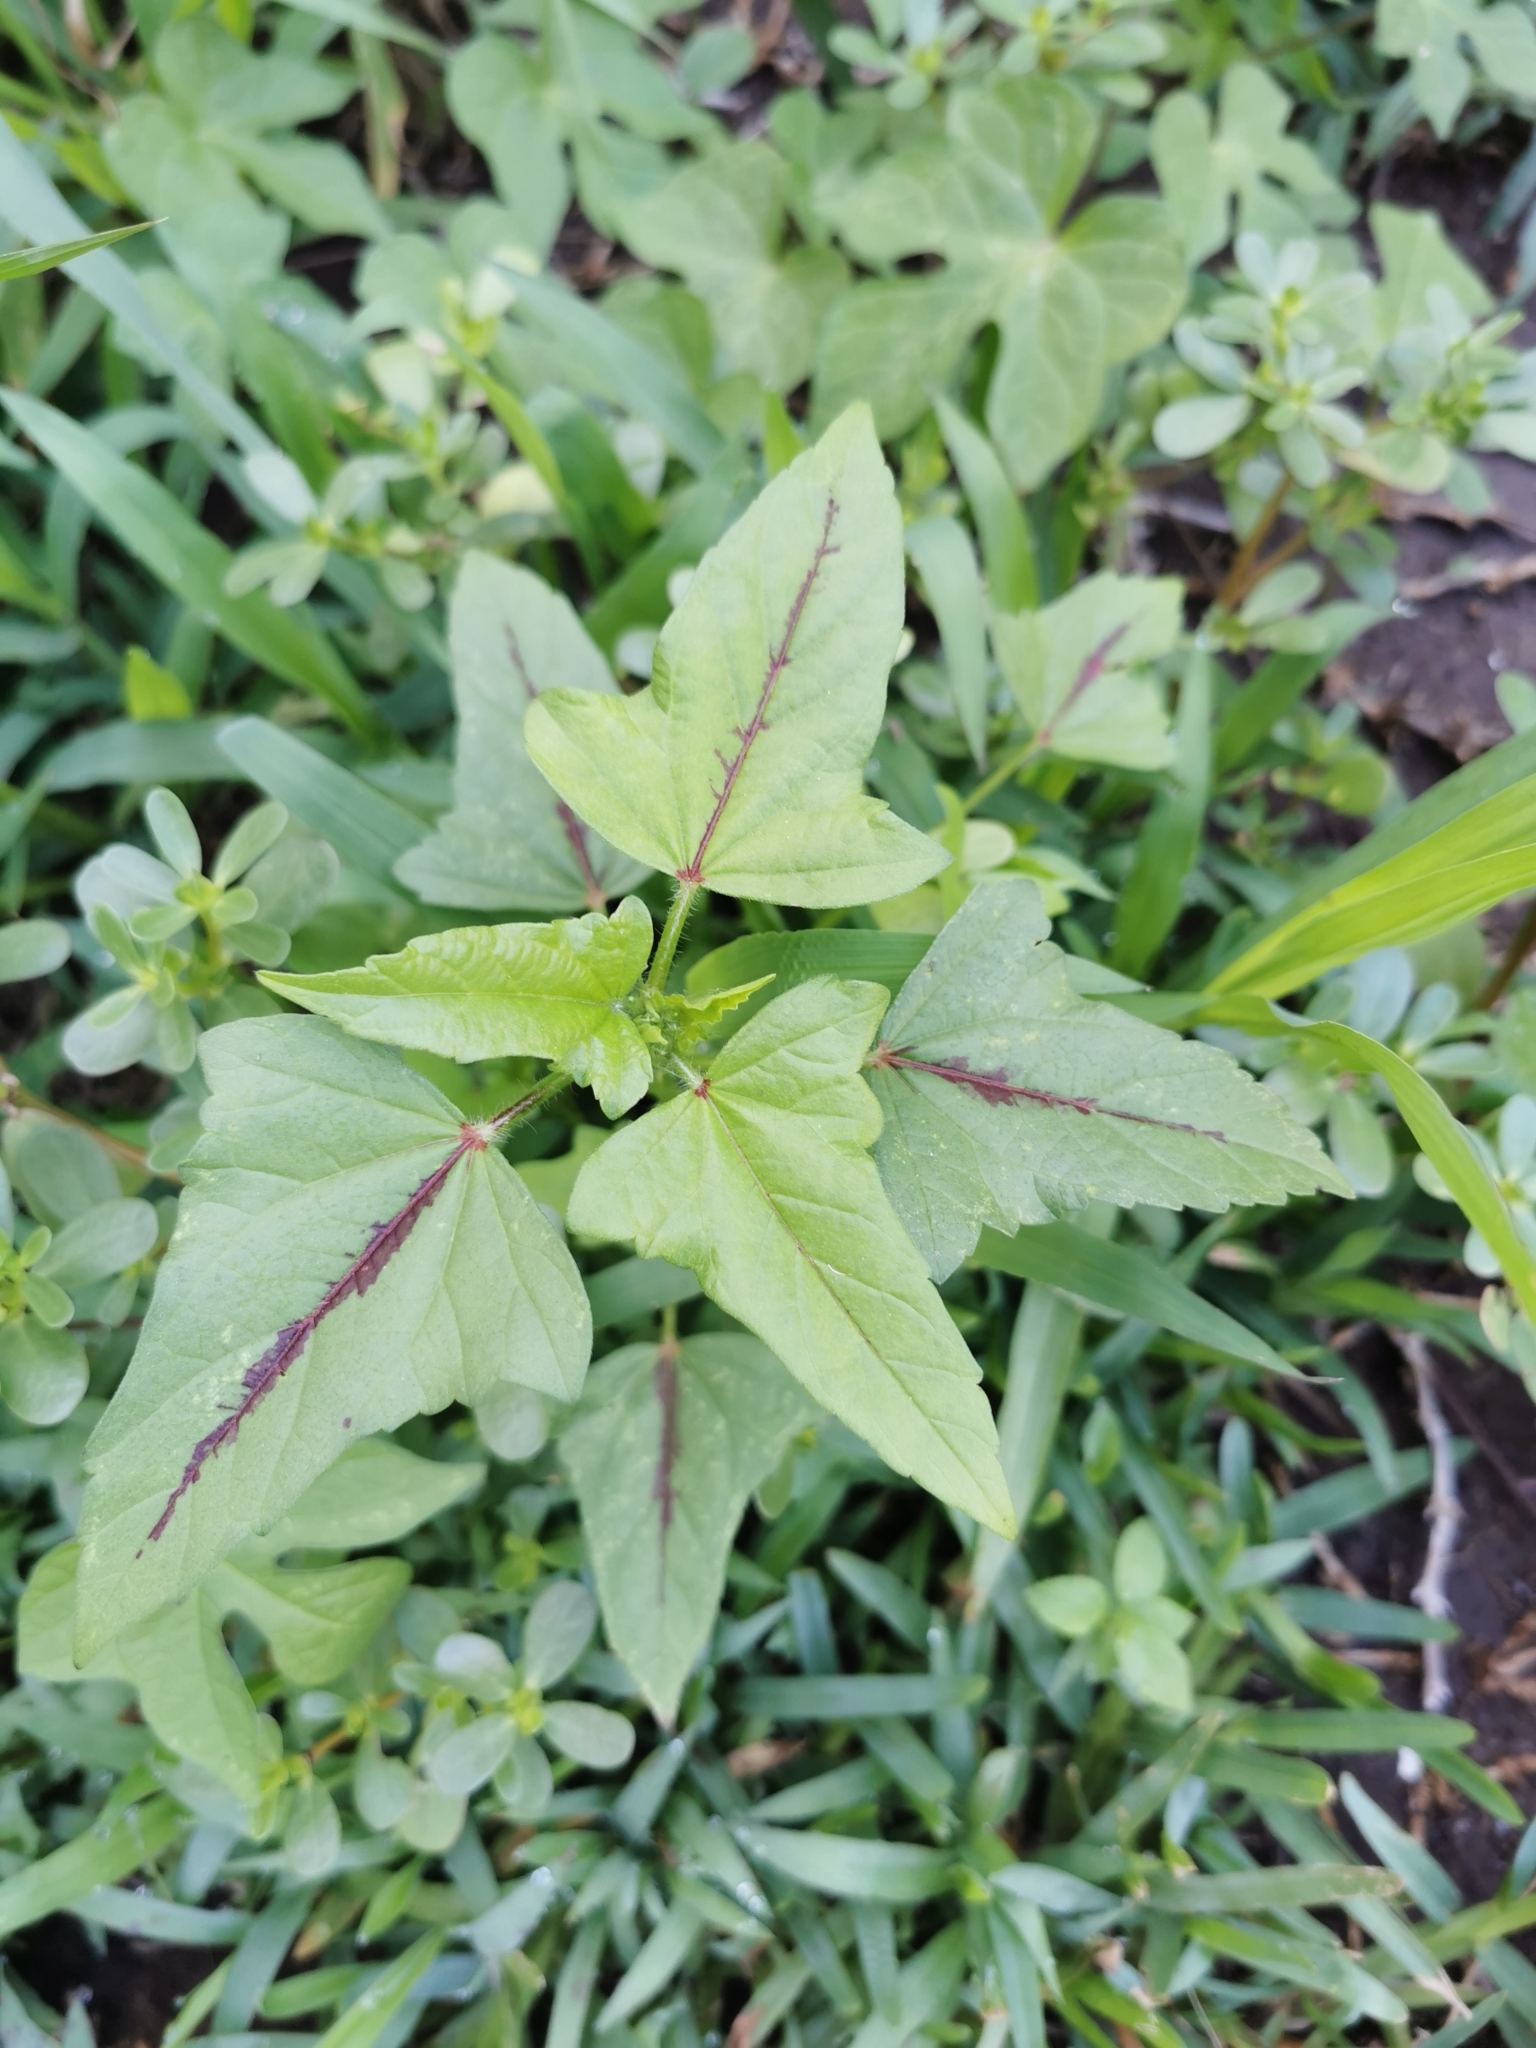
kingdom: Plantae
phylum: Tracheophyta
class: Magnoliopsida
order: Malvales
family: Malvaceae
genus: Anoda
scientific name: Anoda cristata
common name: Spurred anoda
